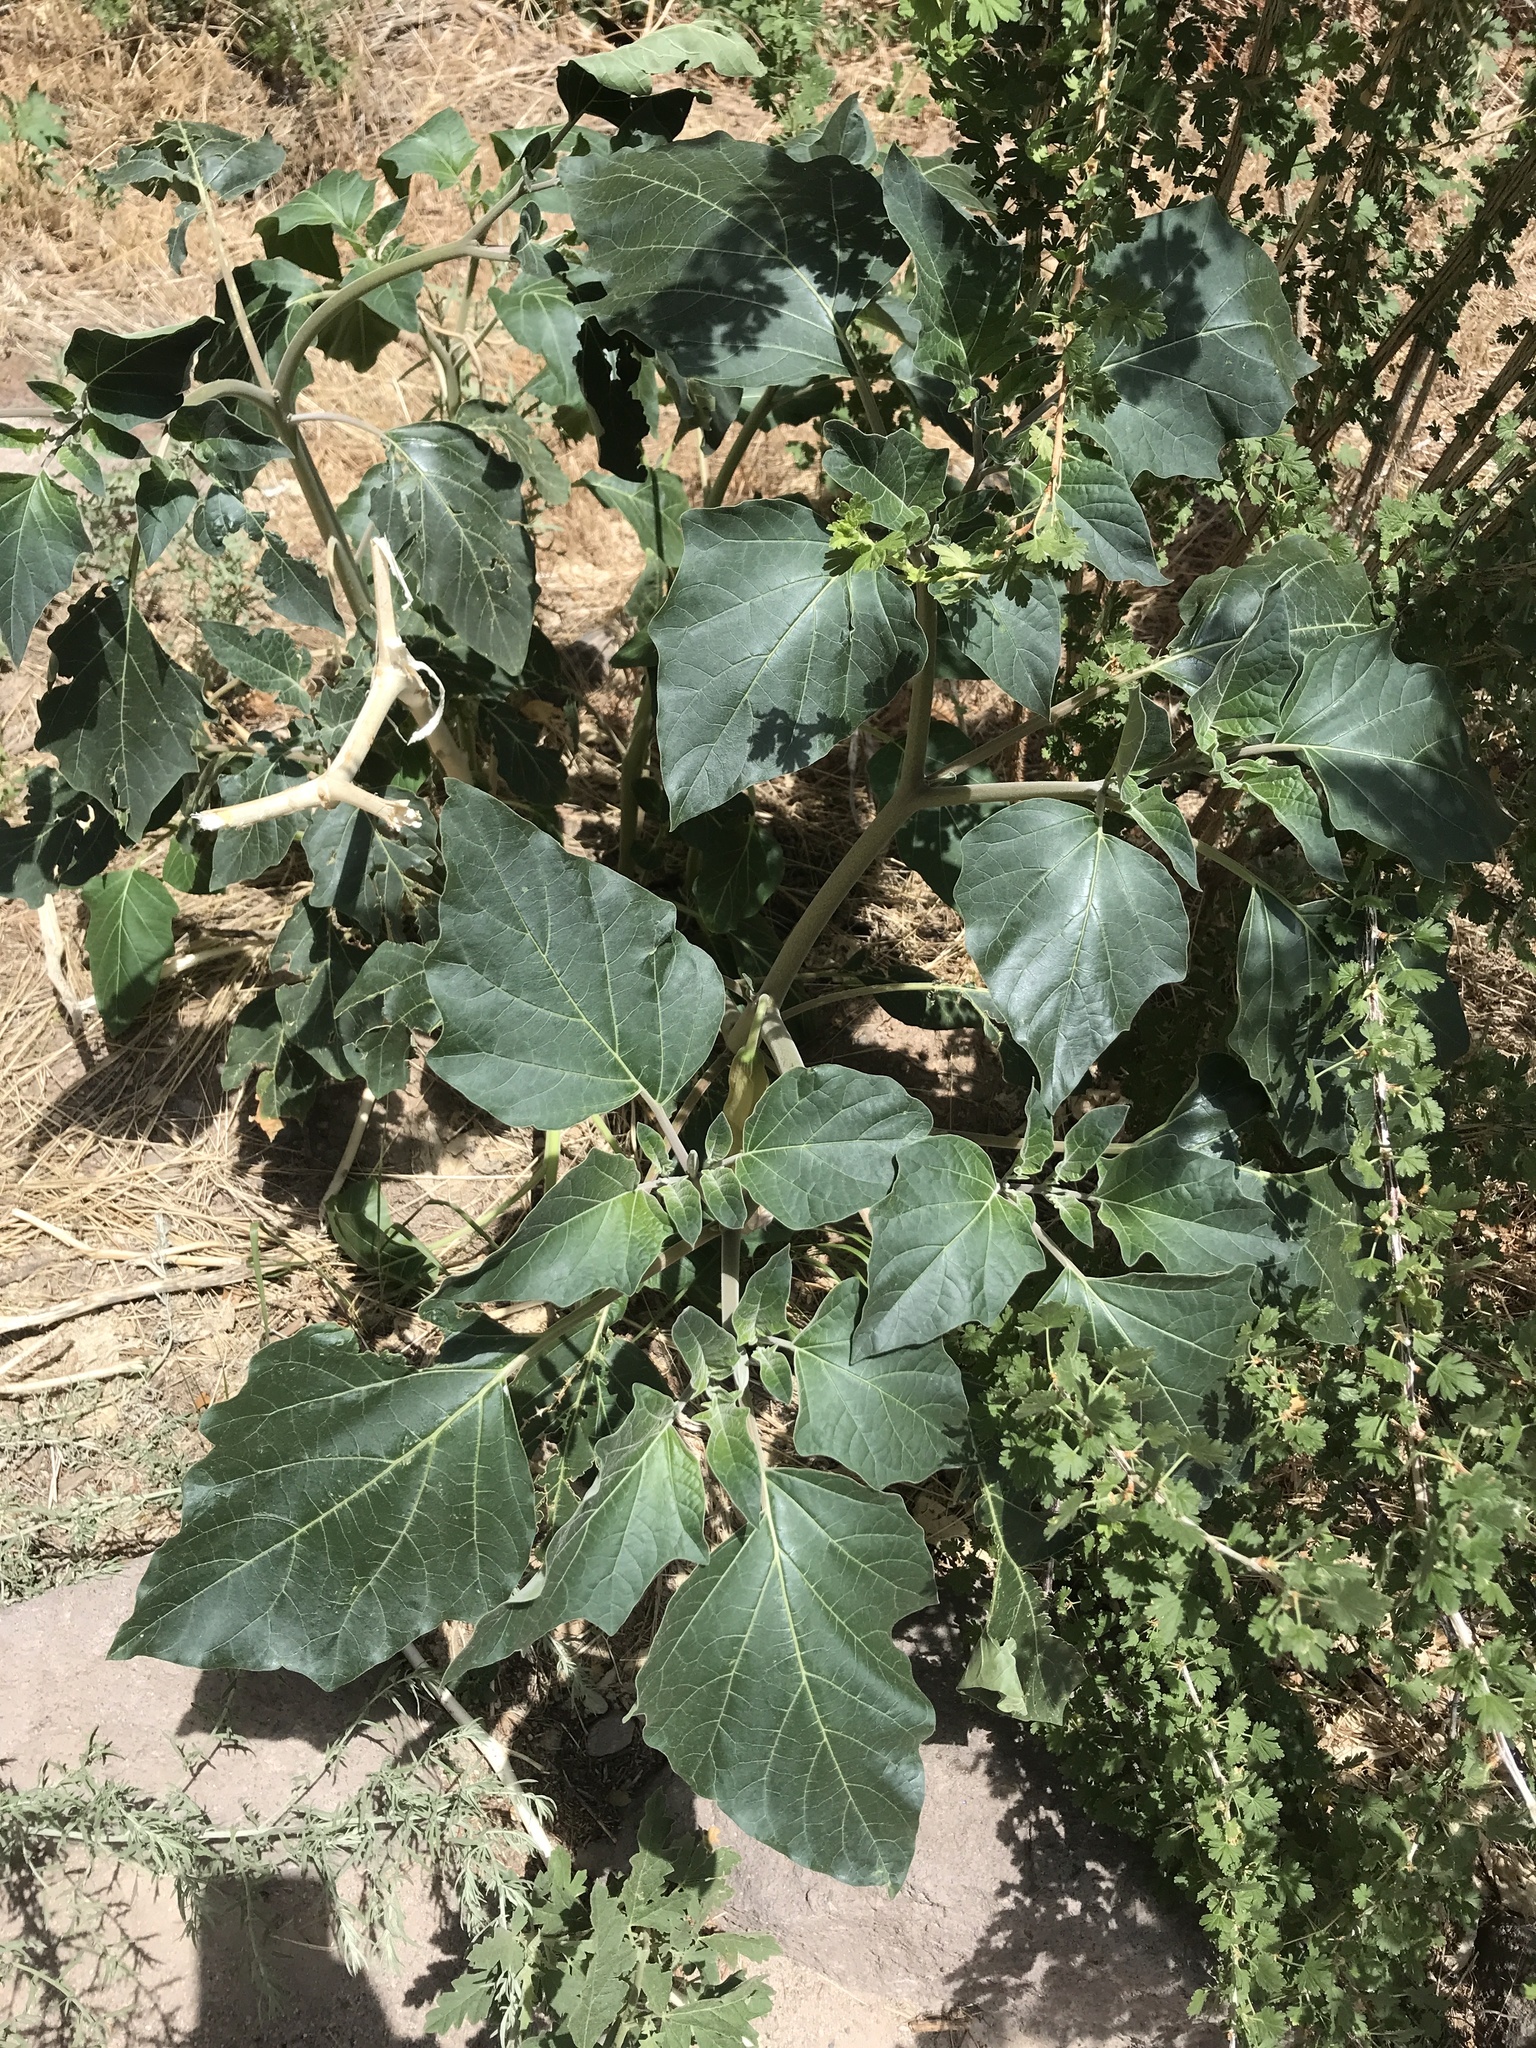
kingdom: Plantae
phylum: Tracheophyta
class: Magnoliopsida
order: Solanales
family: Solanaceae
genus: Datura
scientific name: Datura wrightii
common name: Sacred thorn-apple
